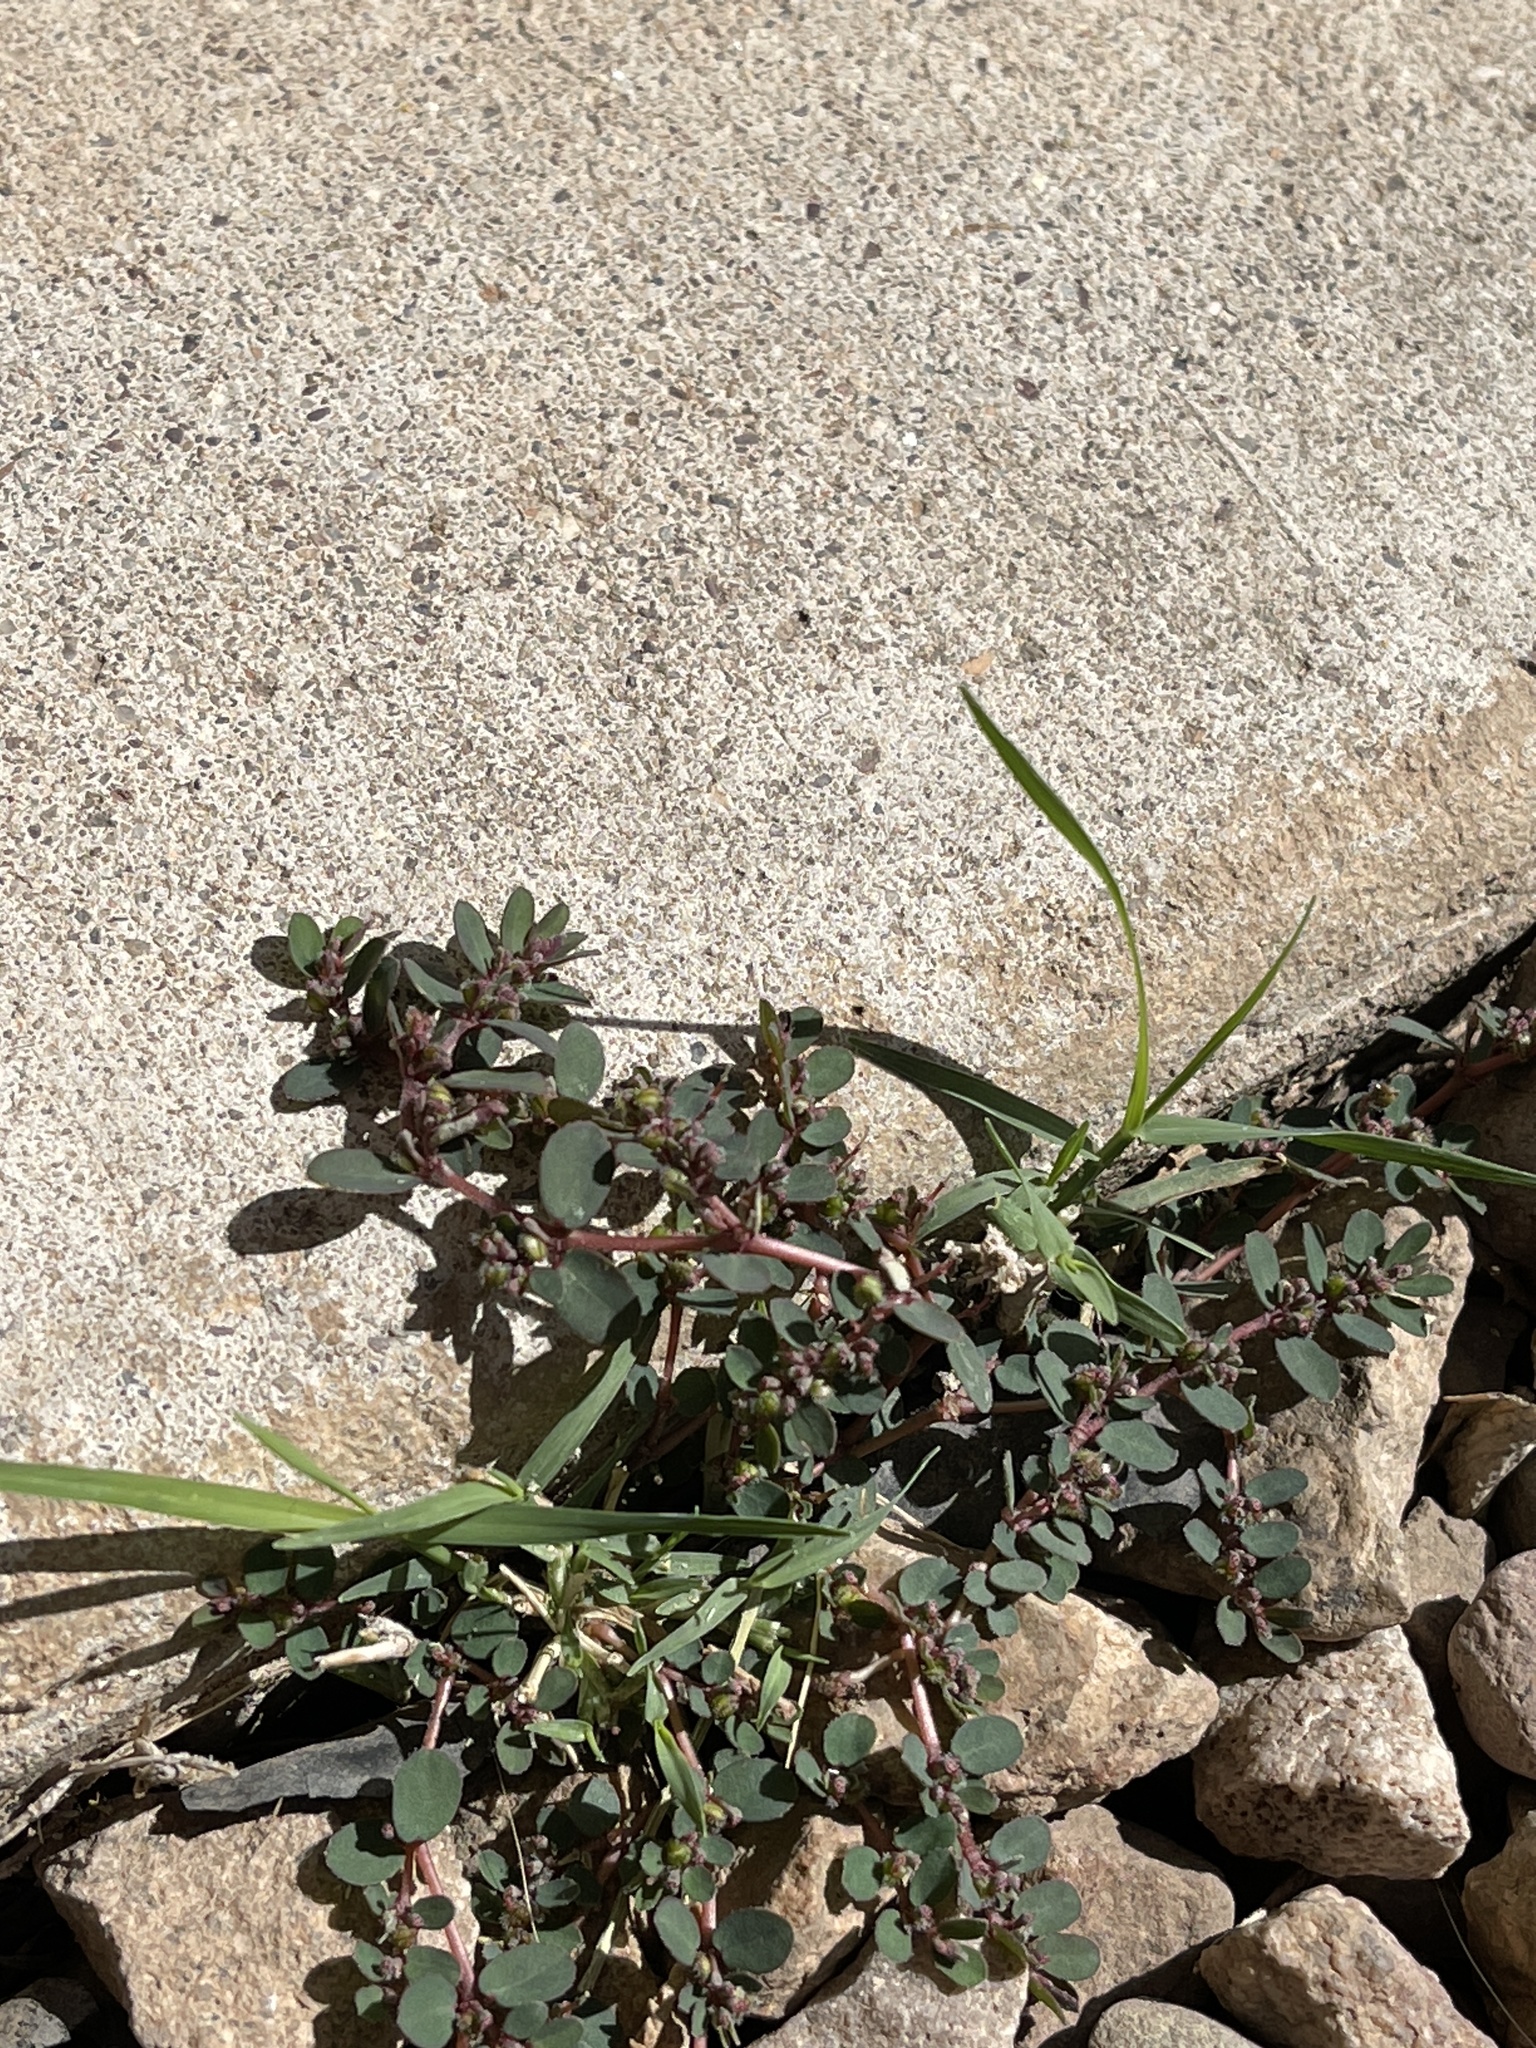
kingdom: Plantae
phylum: Tracheophyta
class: Magnoliopsida
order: Malpighiales
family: Euphorbiaceae
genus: Euphorbia
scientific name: Euphorbia prostrata
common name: Prostrate sandmat
